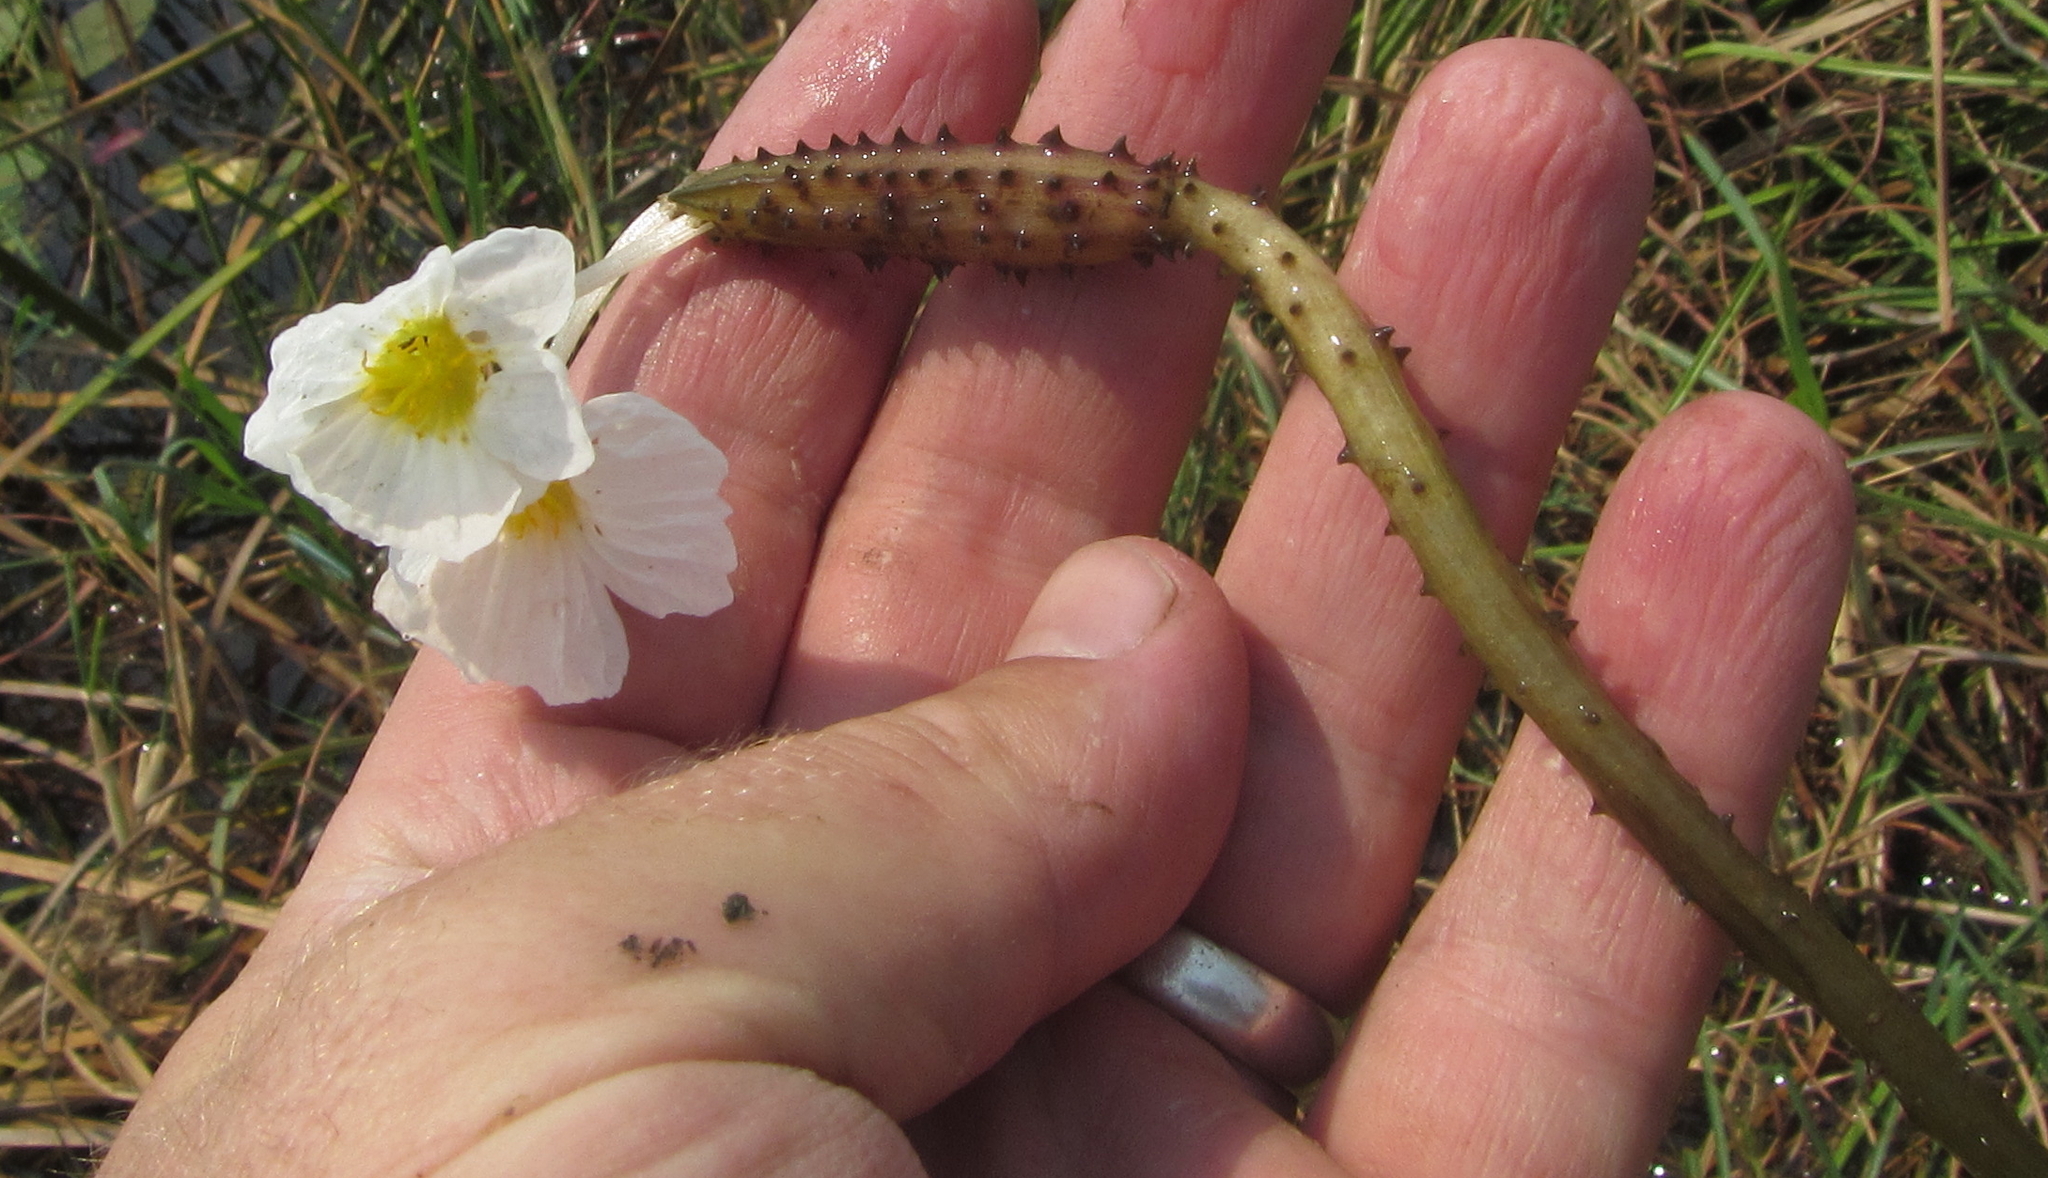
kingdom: Plantae
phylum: Tracheophyta
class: Liliopsida
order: Alismatales
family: Hydrocharitaceae
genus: Ottelia
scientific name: Ottelia muricata
